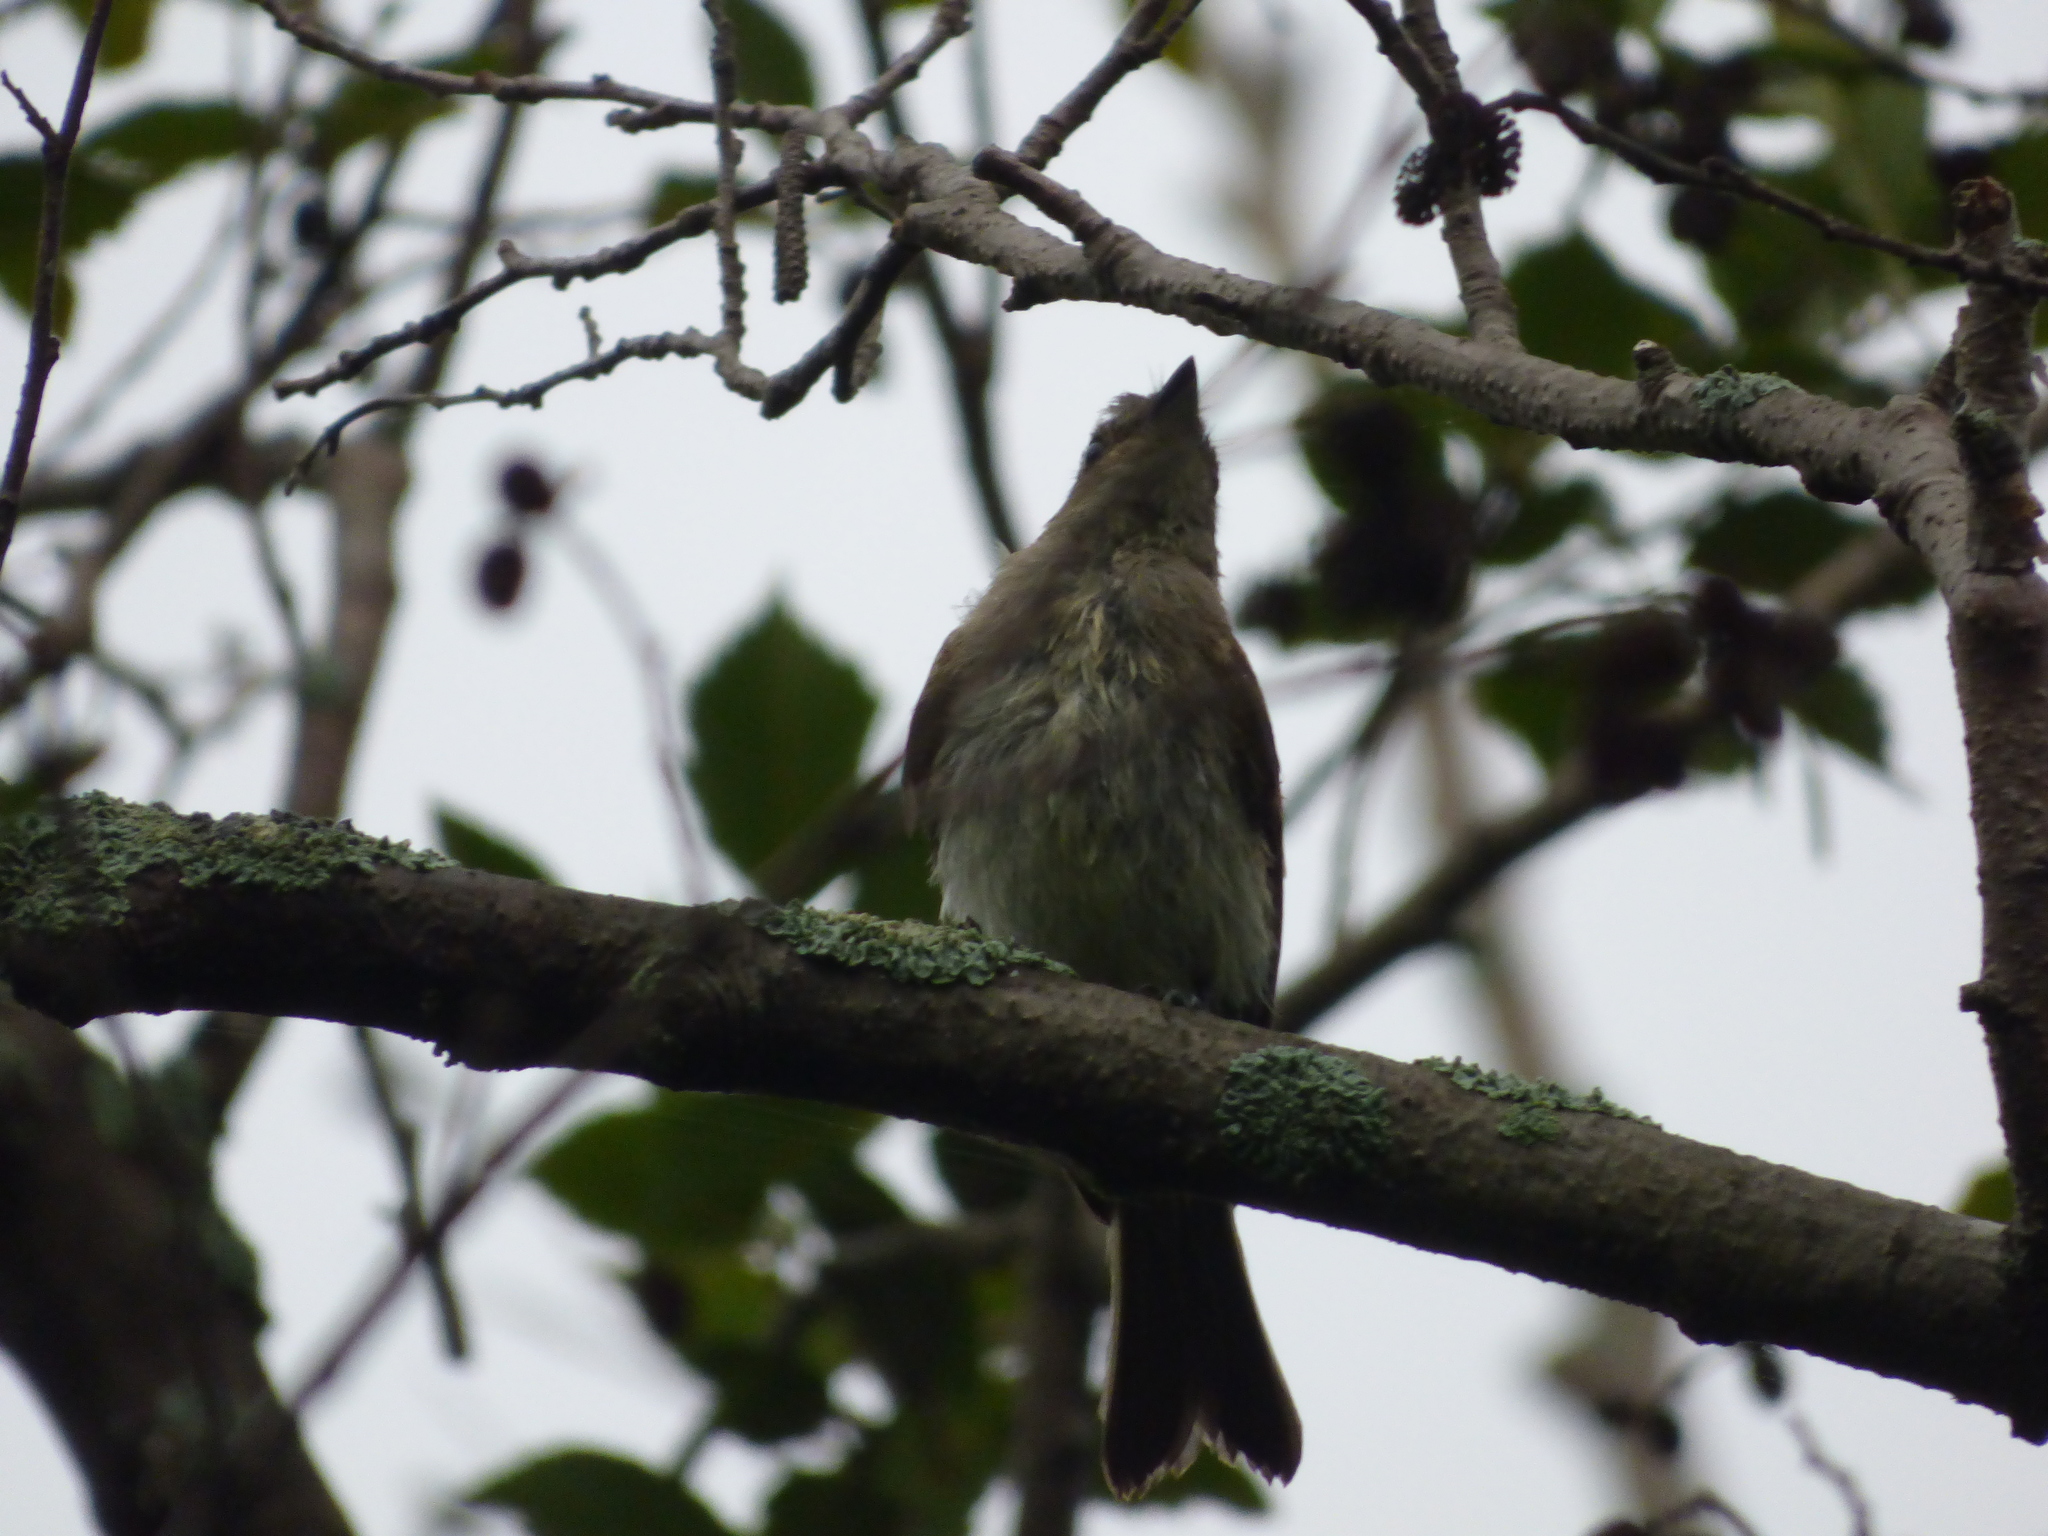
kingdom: Animalia
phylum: Chordata
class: Aves
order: Passeriformes
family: Tyrannidae
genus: Sayornis
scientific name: Sayornis phoebe
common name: Eastern phoebe
